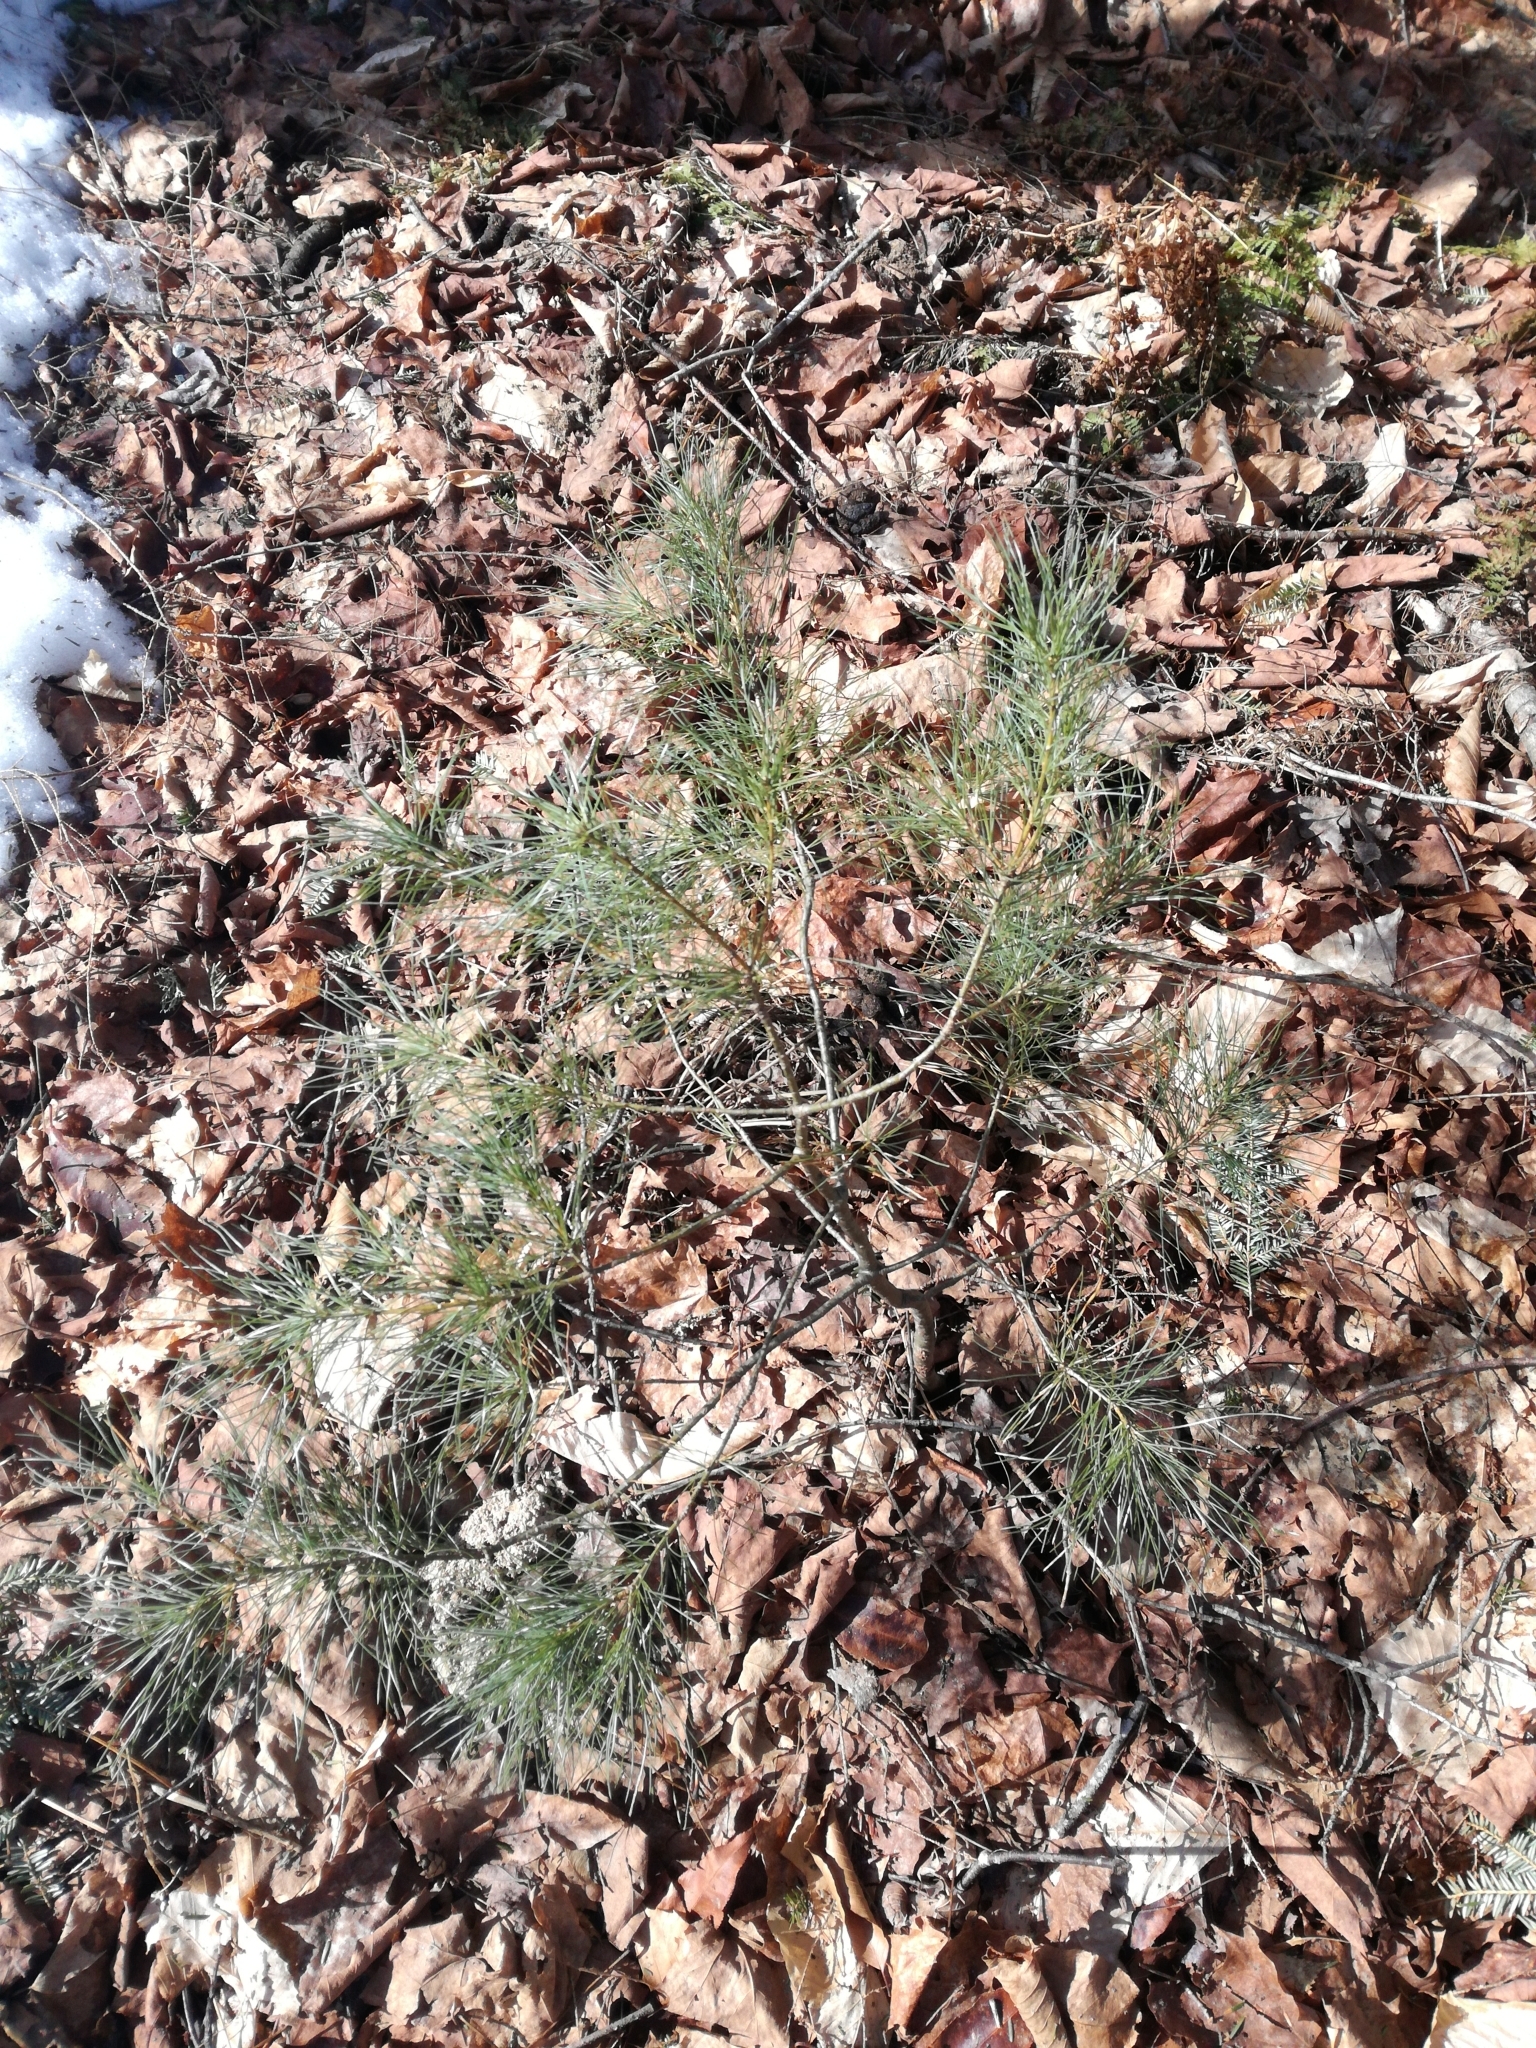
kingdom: Plantae
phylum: Tracheophyta
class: Pinopsida
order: Pinales
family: Pinaceae
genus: Pinus
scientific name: Pinus strobus
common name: Weymouth pine
